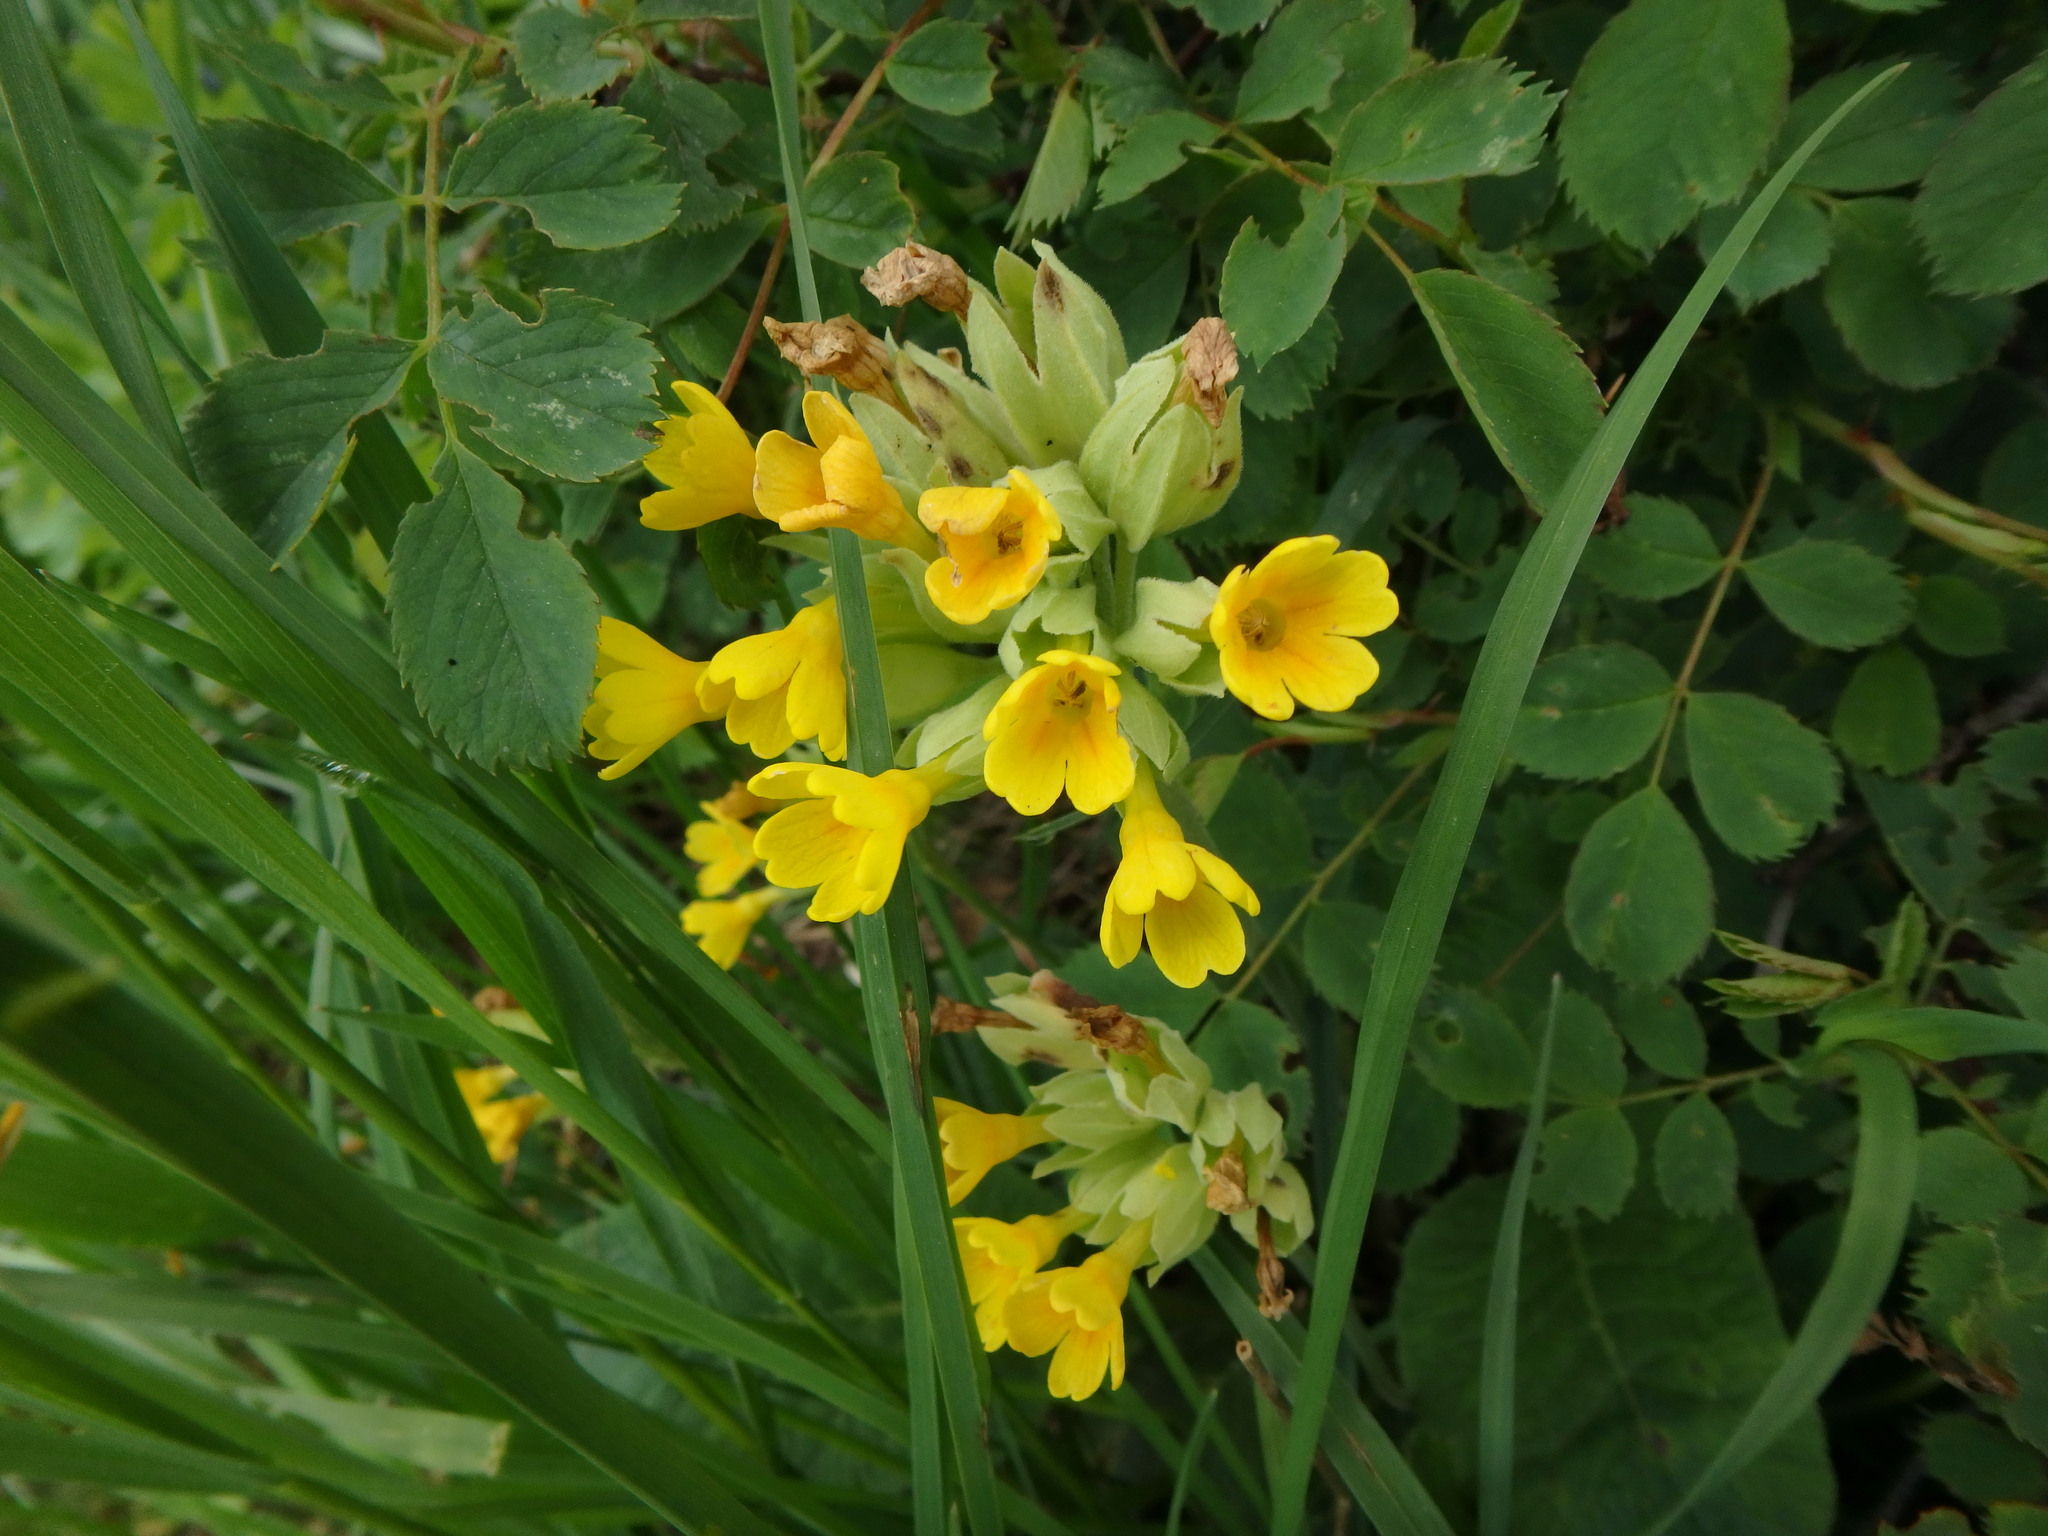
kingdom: Plantae
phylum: Tracheophyta
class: Magnoliopsida
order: Ericales
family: Primulaceae
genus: Primula
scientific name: Primula veris
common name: Cowslip
